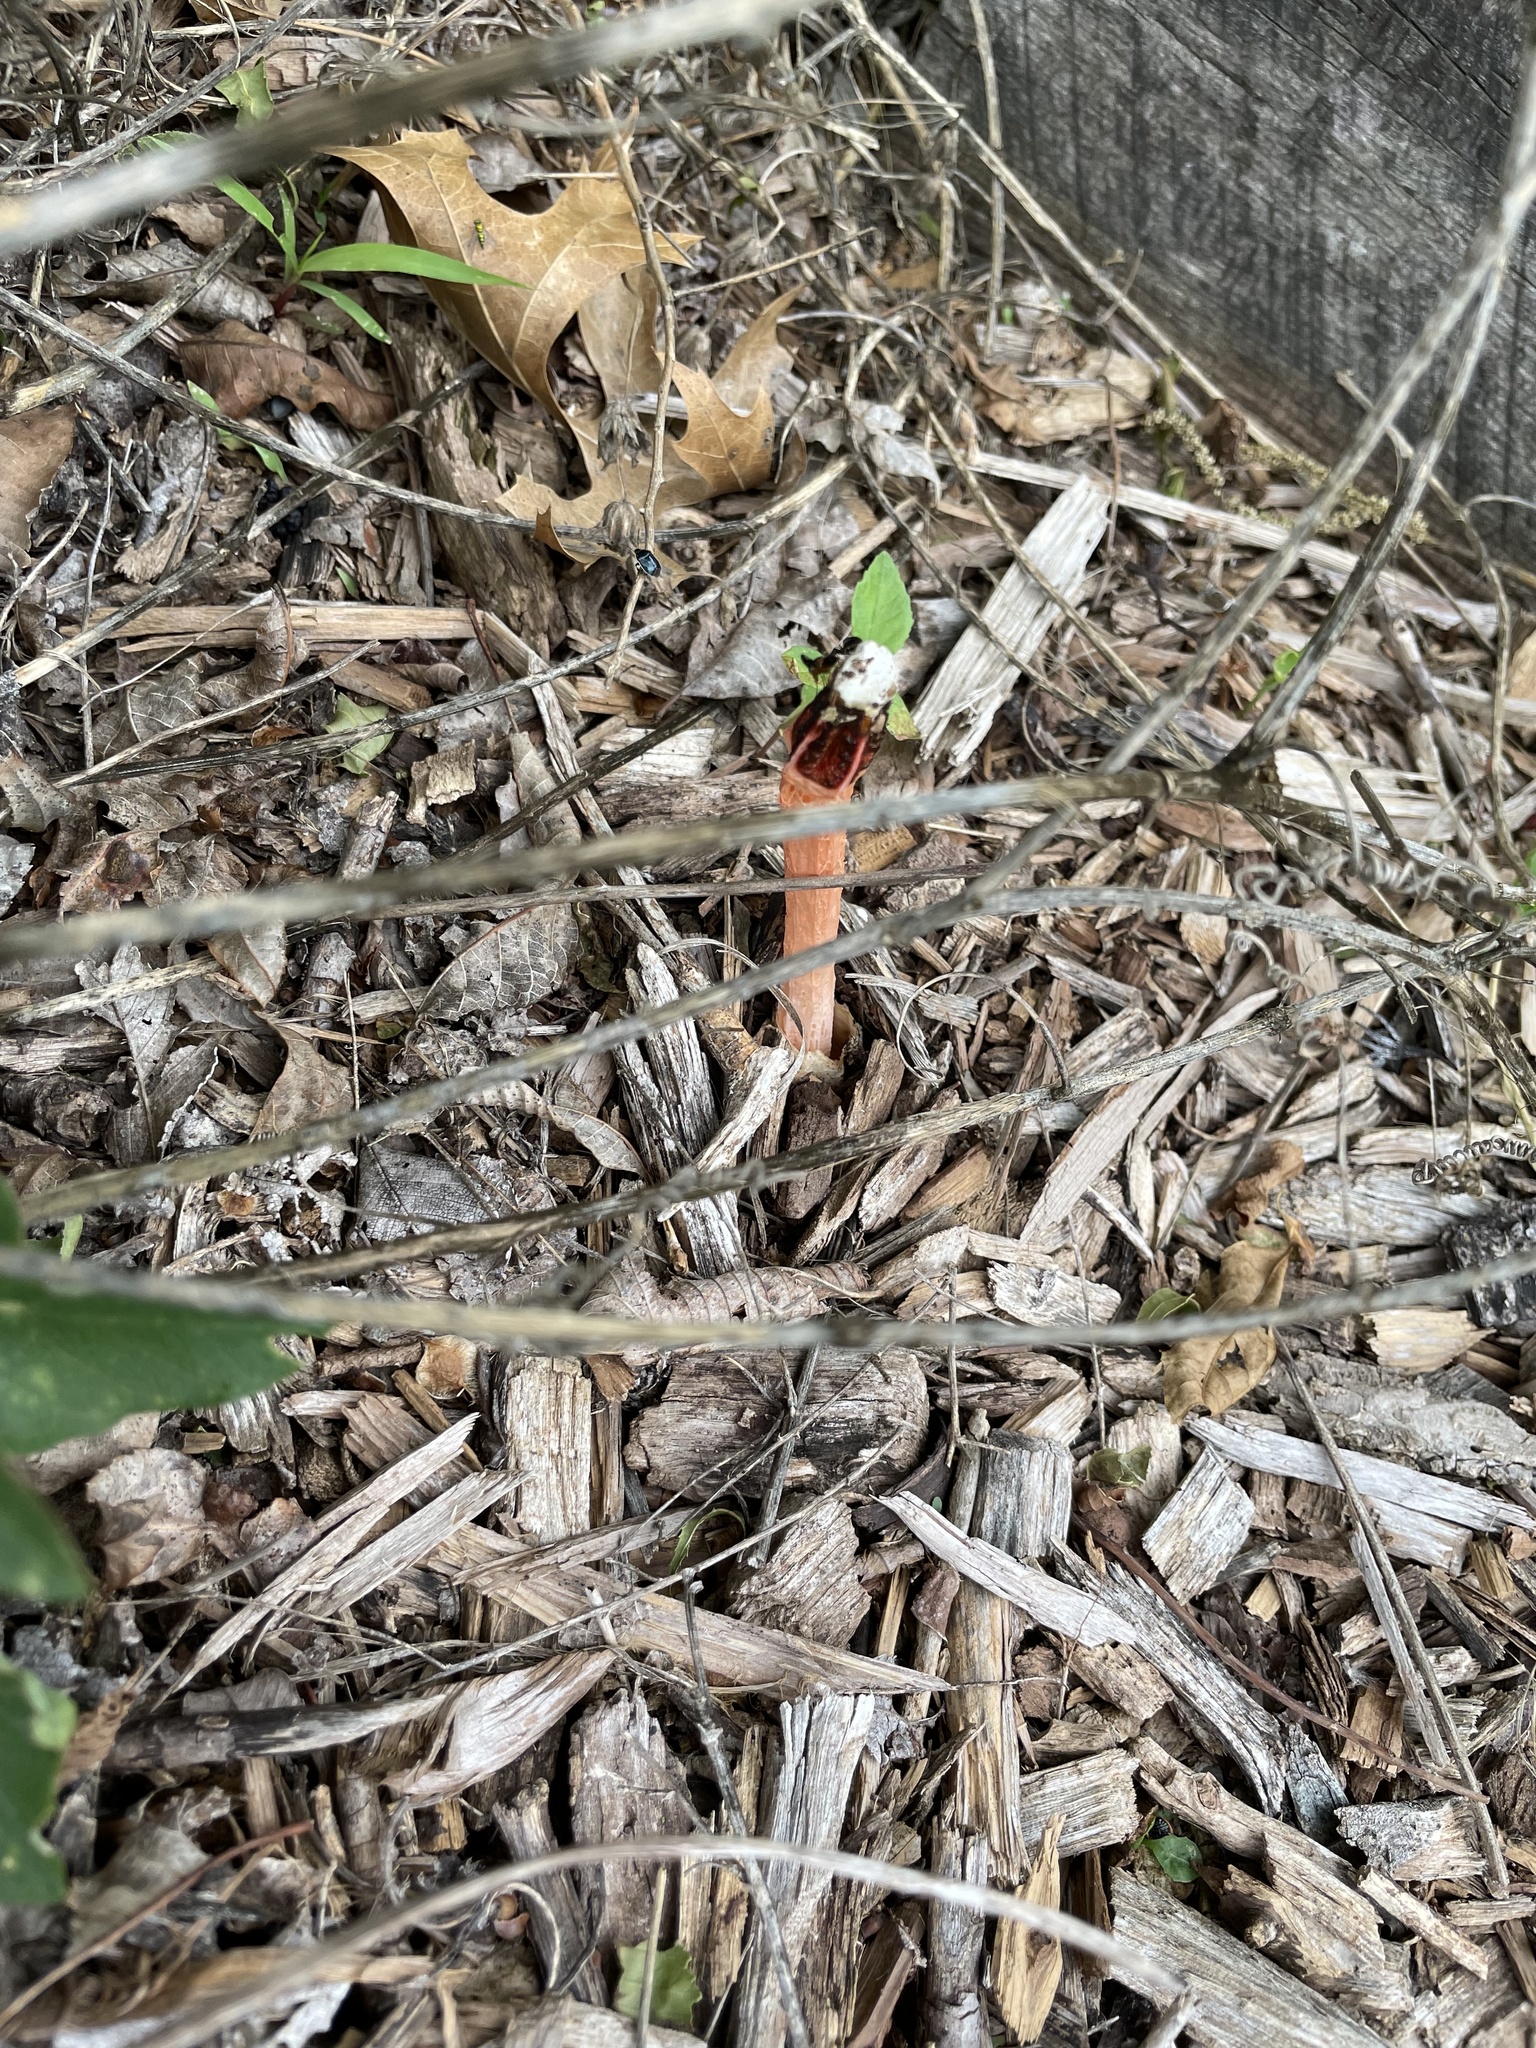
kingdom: Fungi
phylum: Basidiomycota
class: Agaricomycetes
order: Phallales
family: Phallaceae
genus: Lysurus
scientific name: Lysurus mokusin
